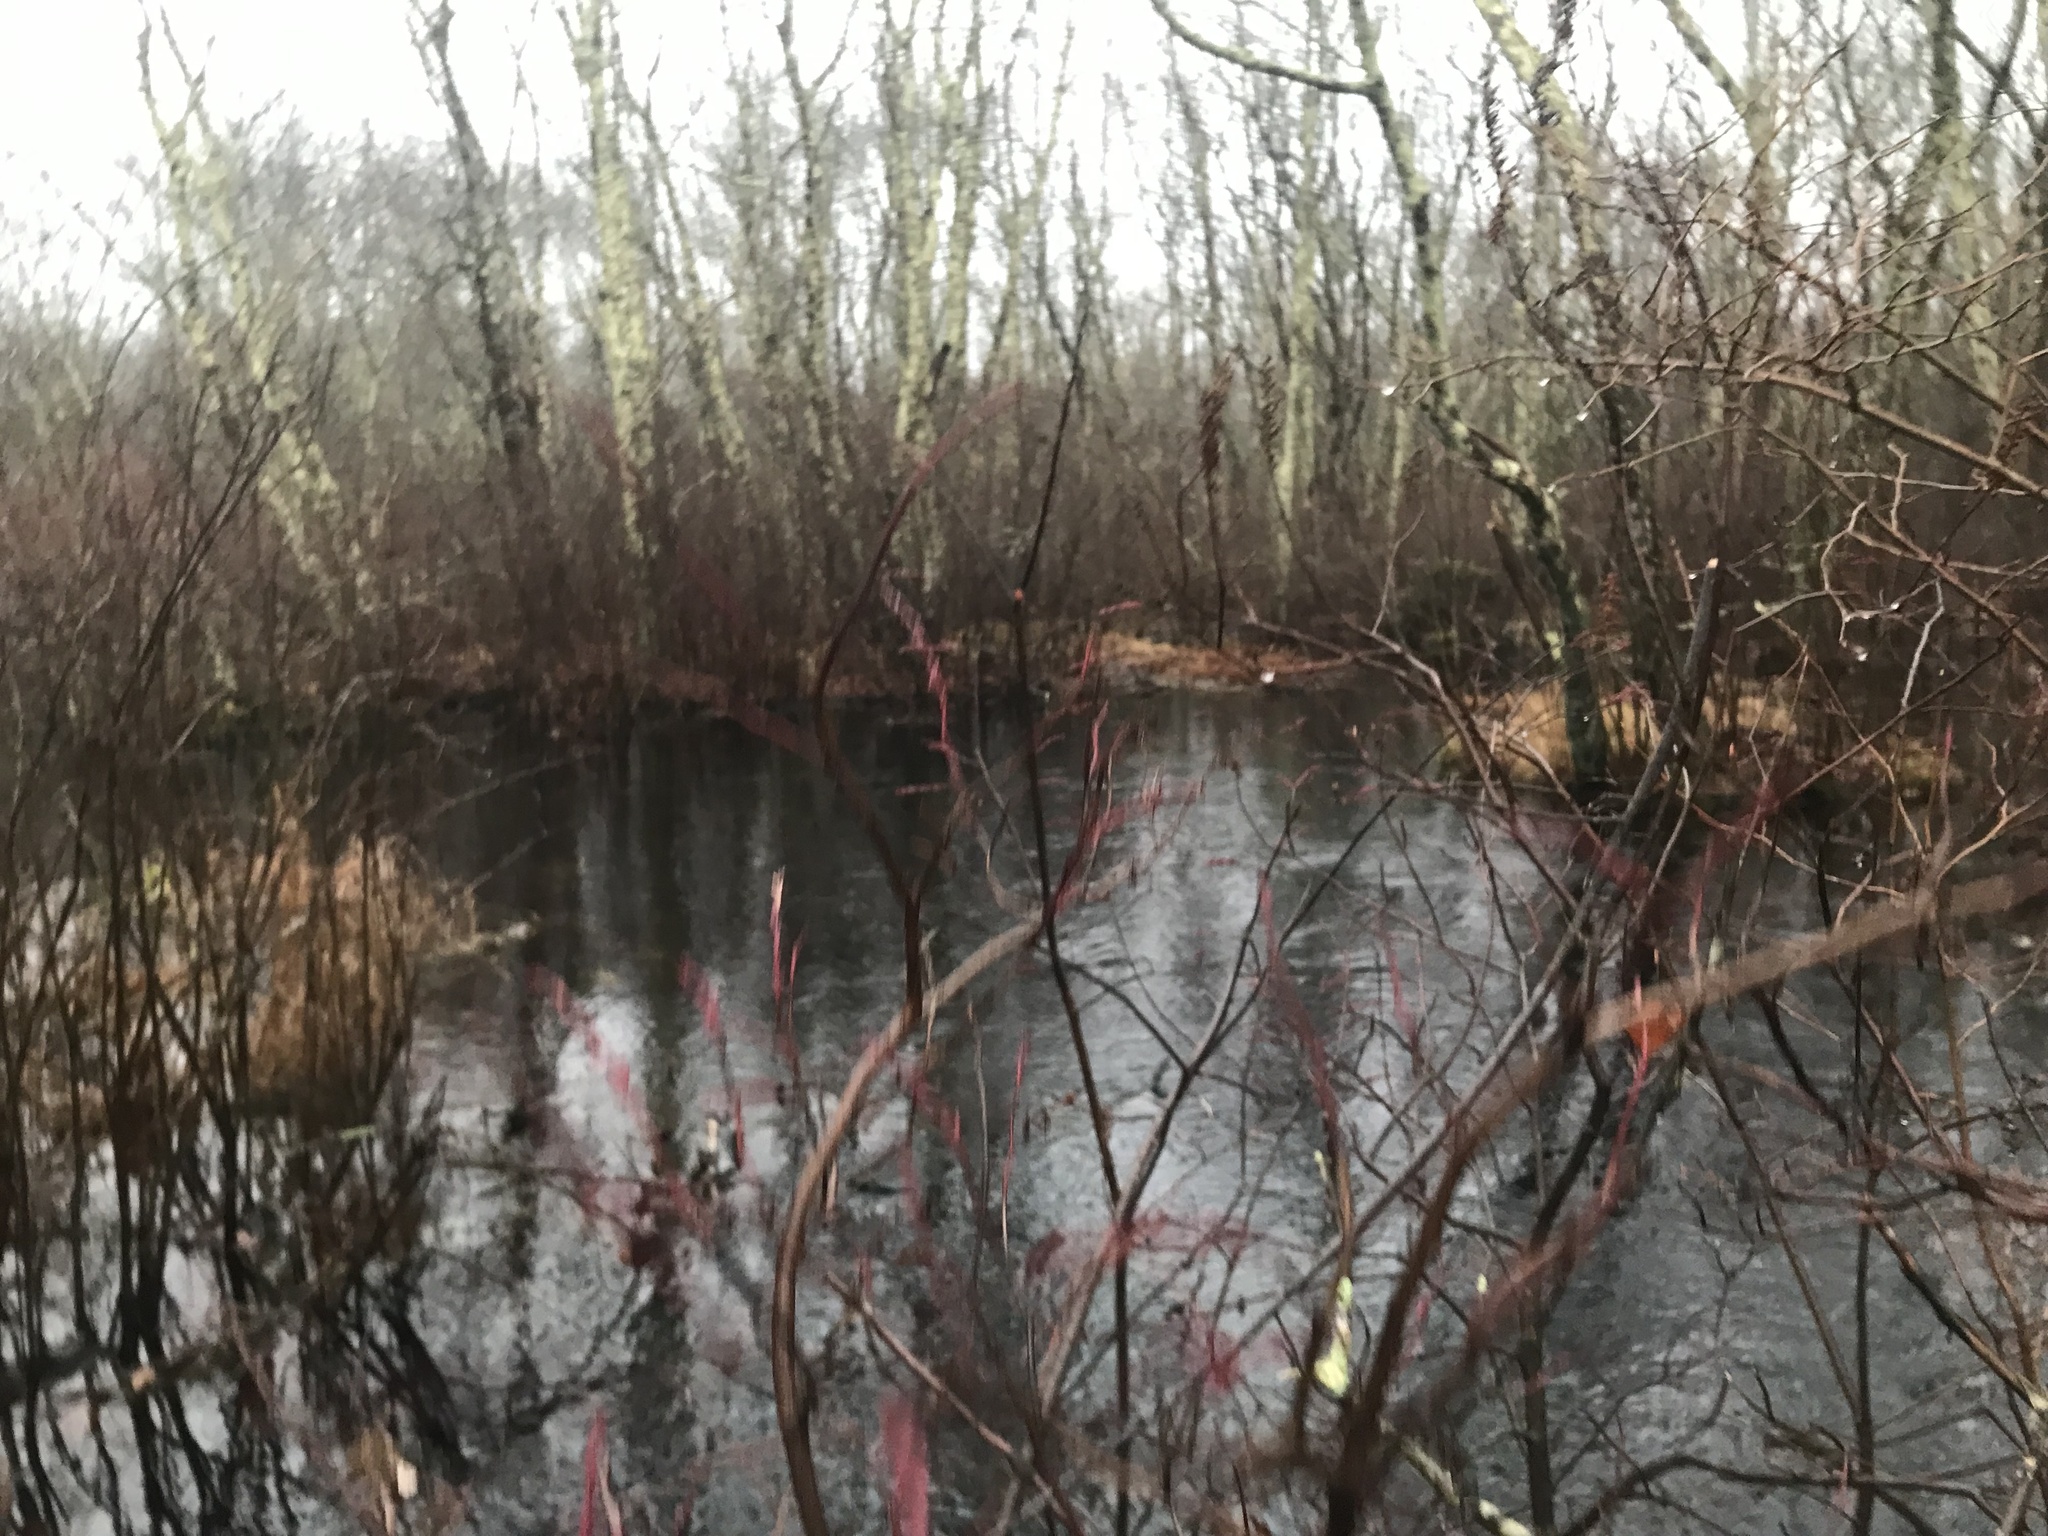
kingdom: Plantae
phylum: Tracheophyta
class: Magnoliopsida
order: Ericales
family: Ericaceae
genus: Eubotrys
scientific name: Eubotrys racemosa
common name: Fetterbush
